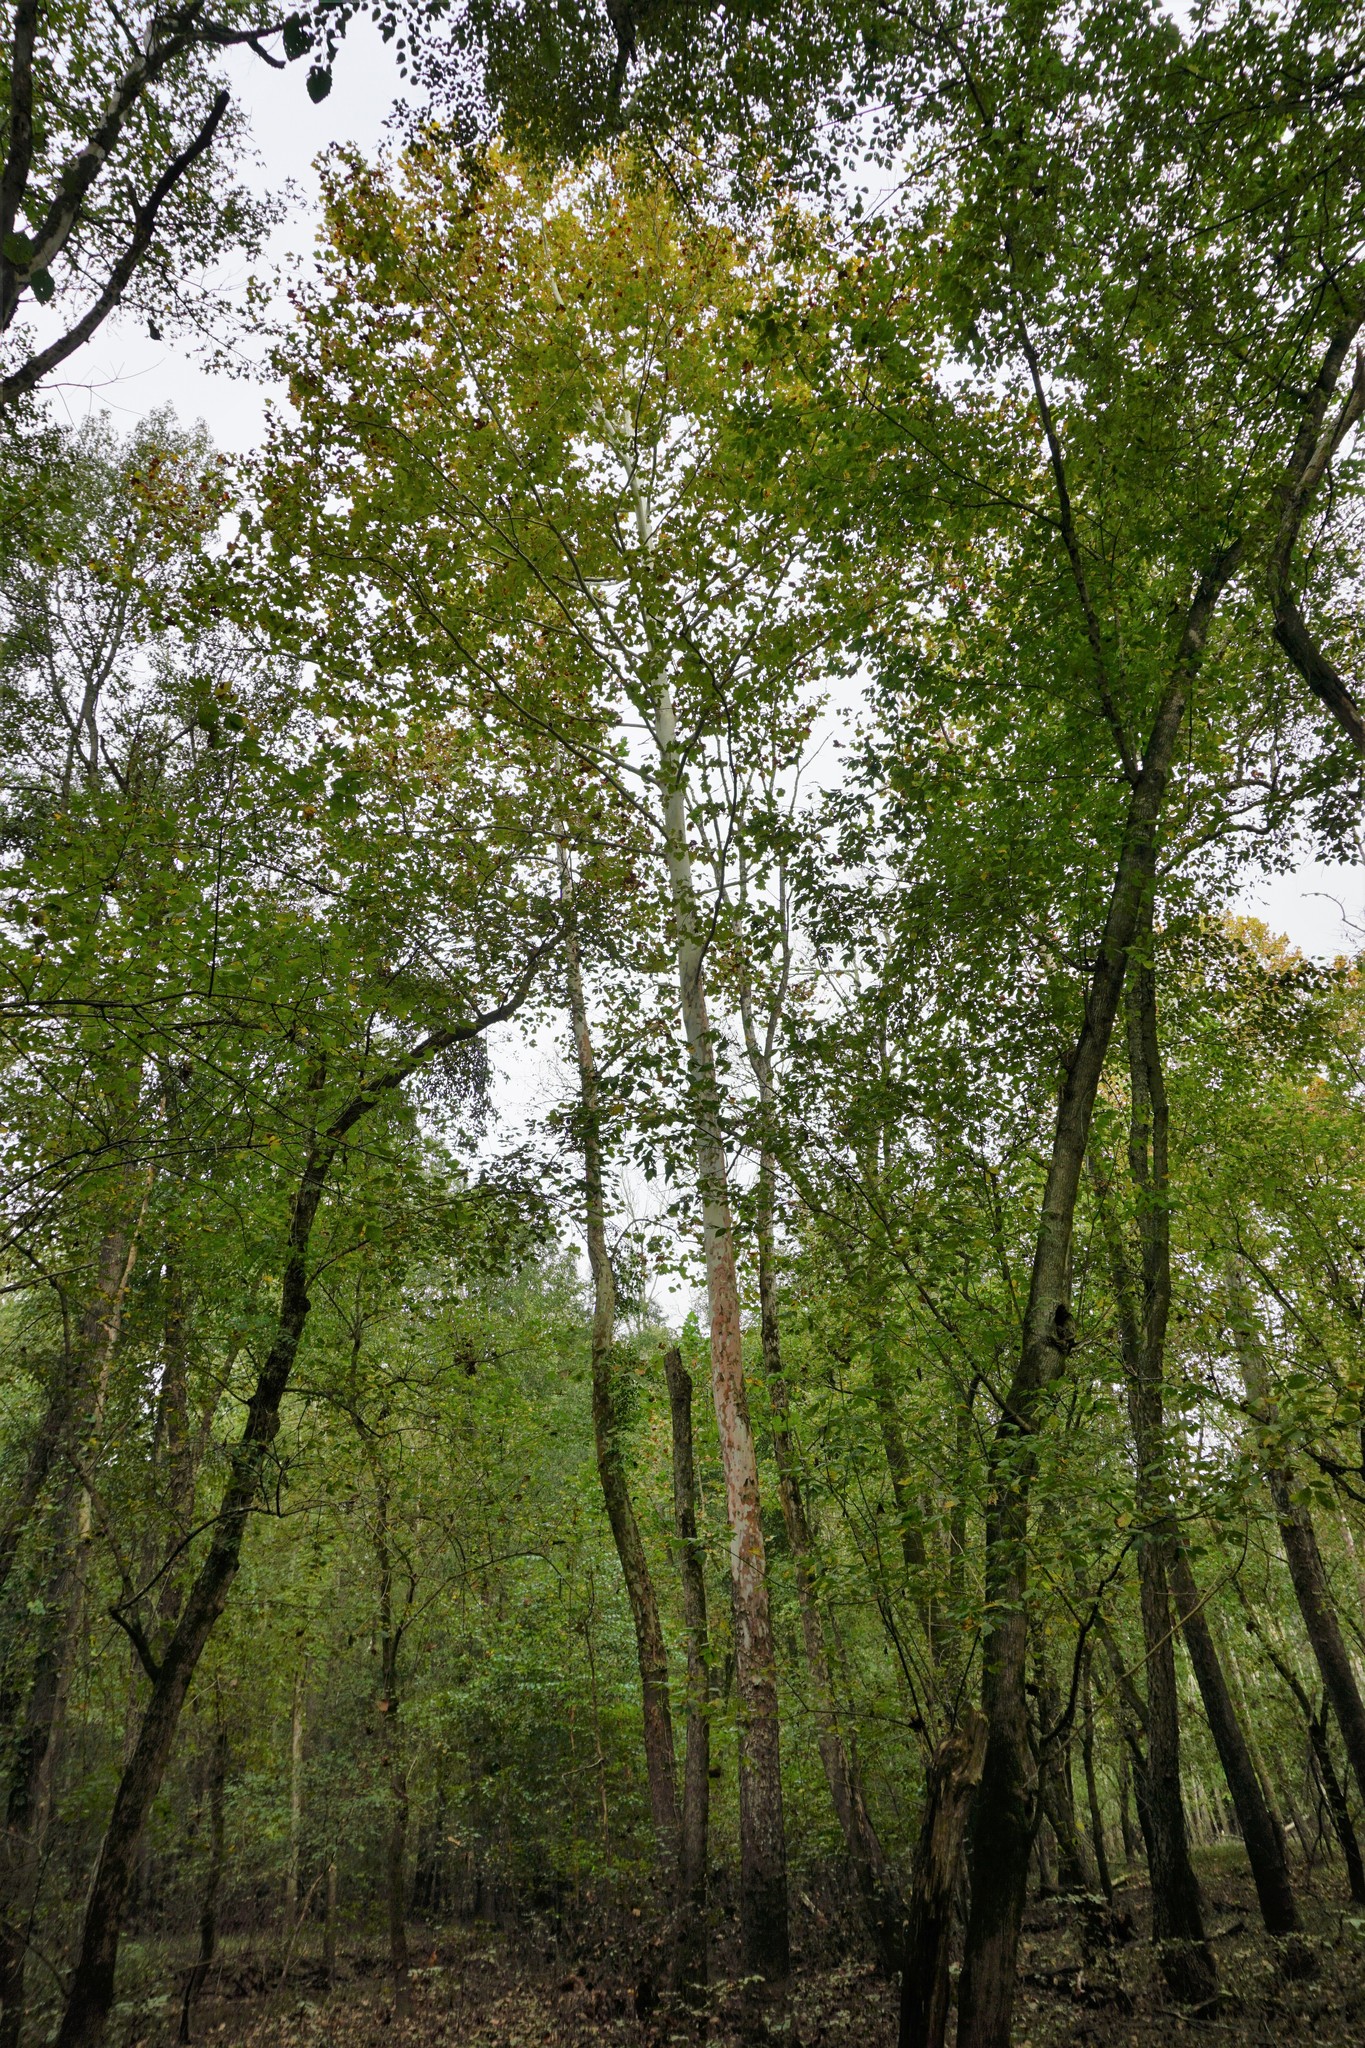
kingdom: Plantae
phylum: Tracheophyta
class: Magnoliopsida
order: Proteales
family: Platanaceae
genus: Platanus
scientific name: Platanus occidentalis
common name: American sycamore
